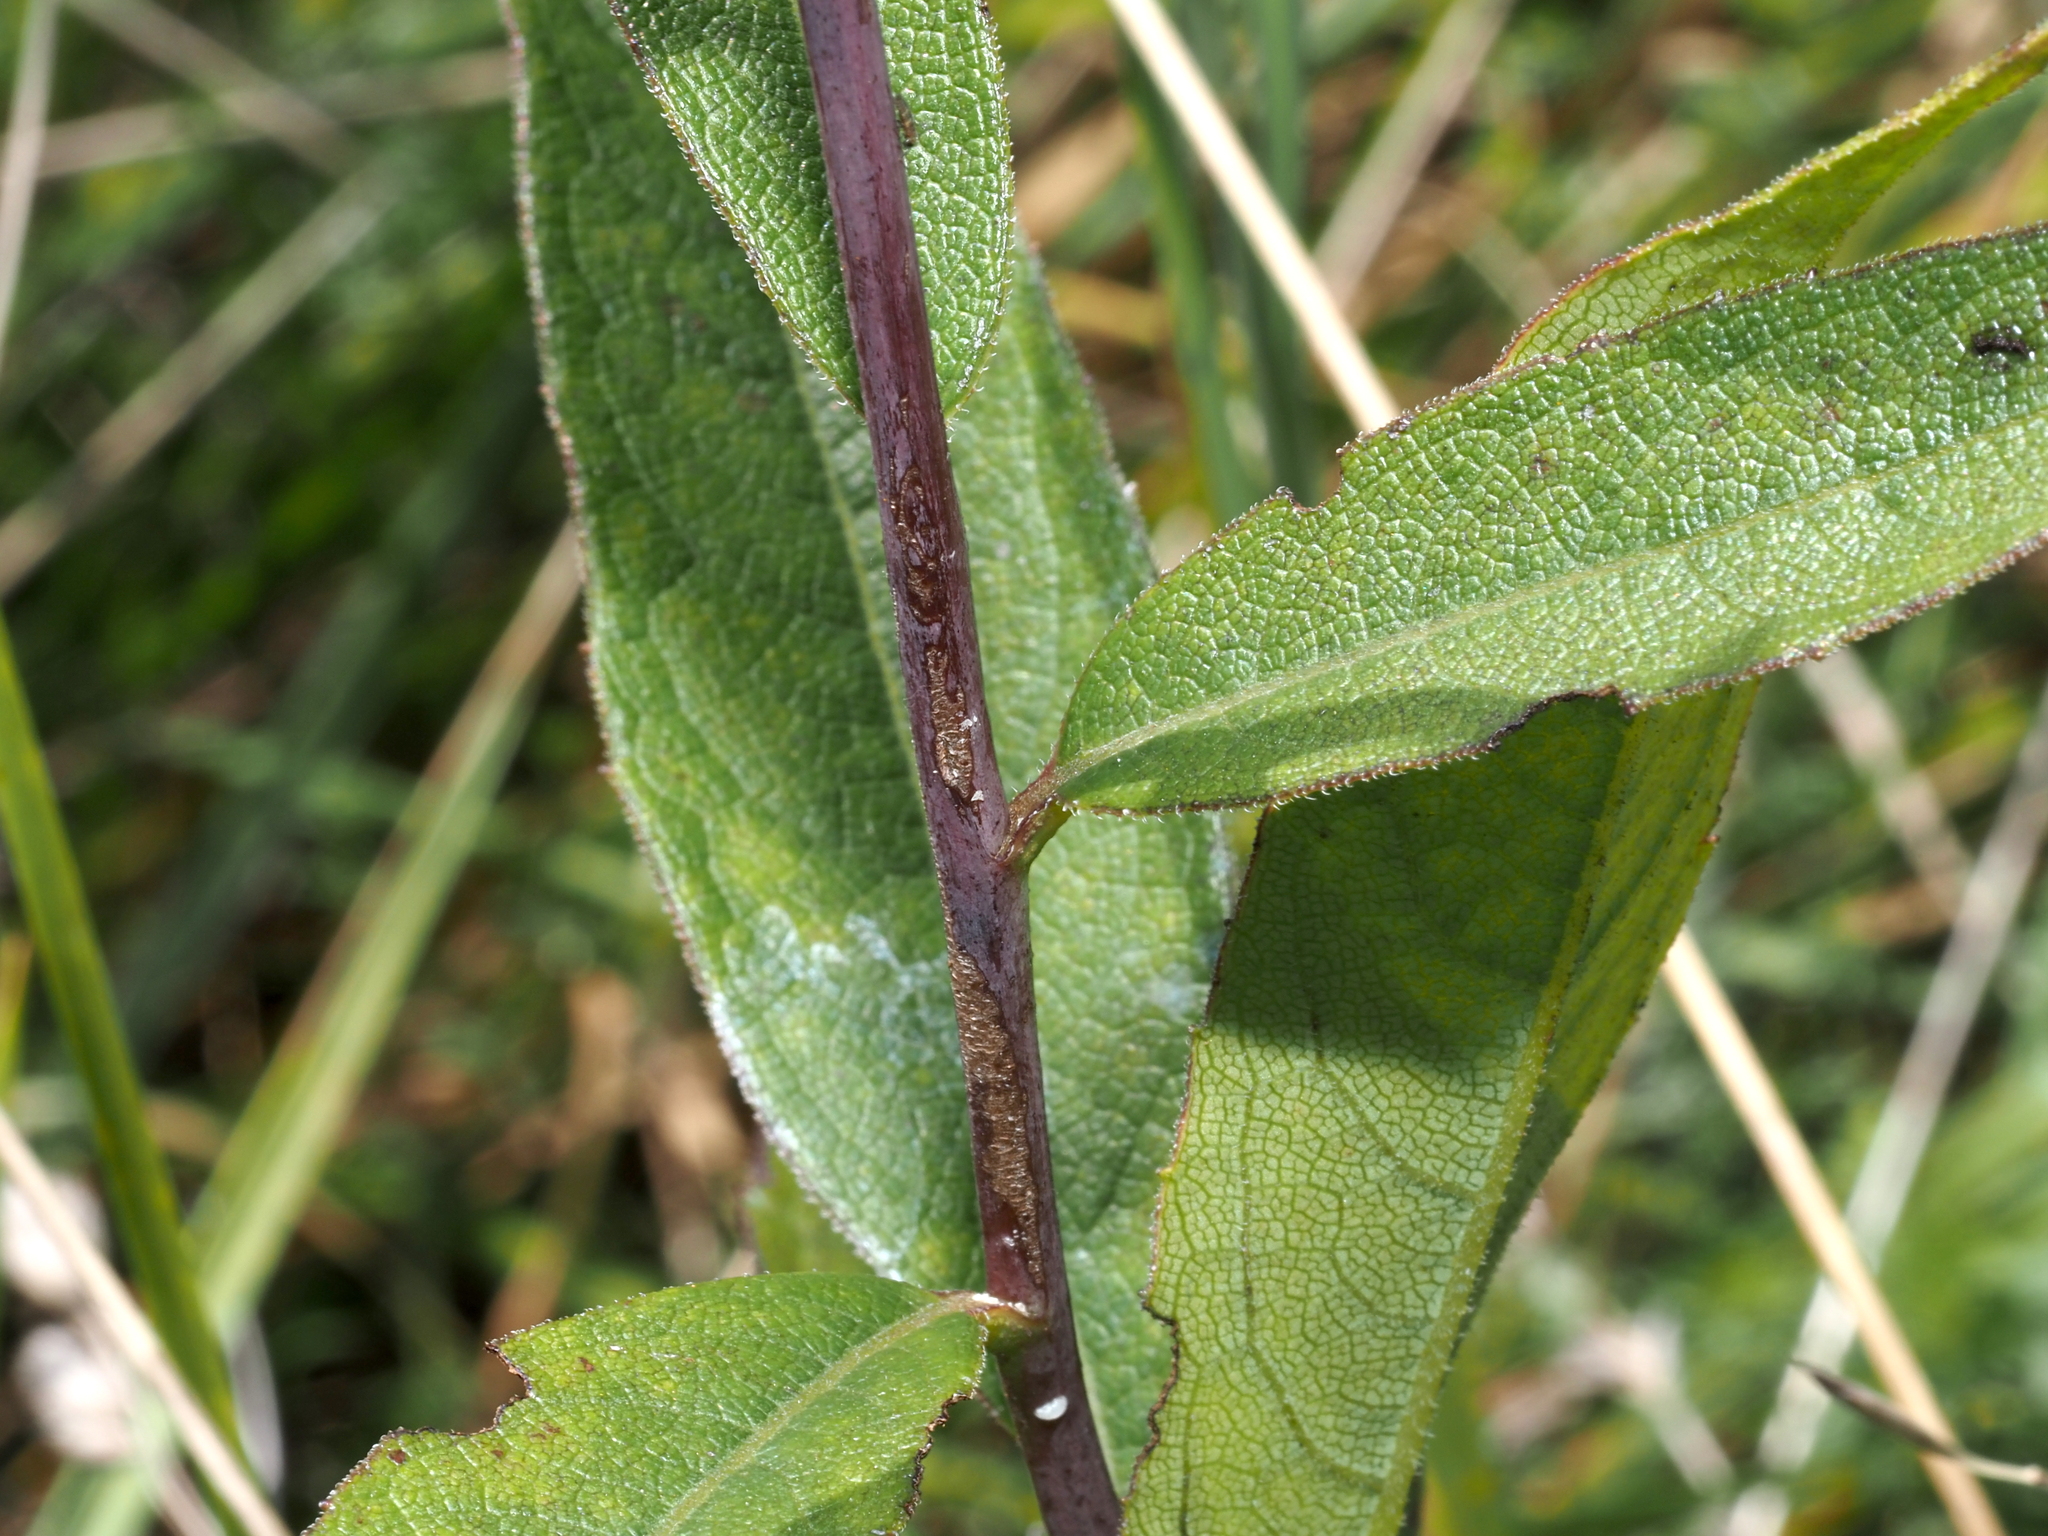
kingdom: Plantae
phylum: Tracheophyta
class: Magnoliopsida
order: Asterales
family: Asteraceae
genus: Silphium
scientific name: Silphium asteriscus
